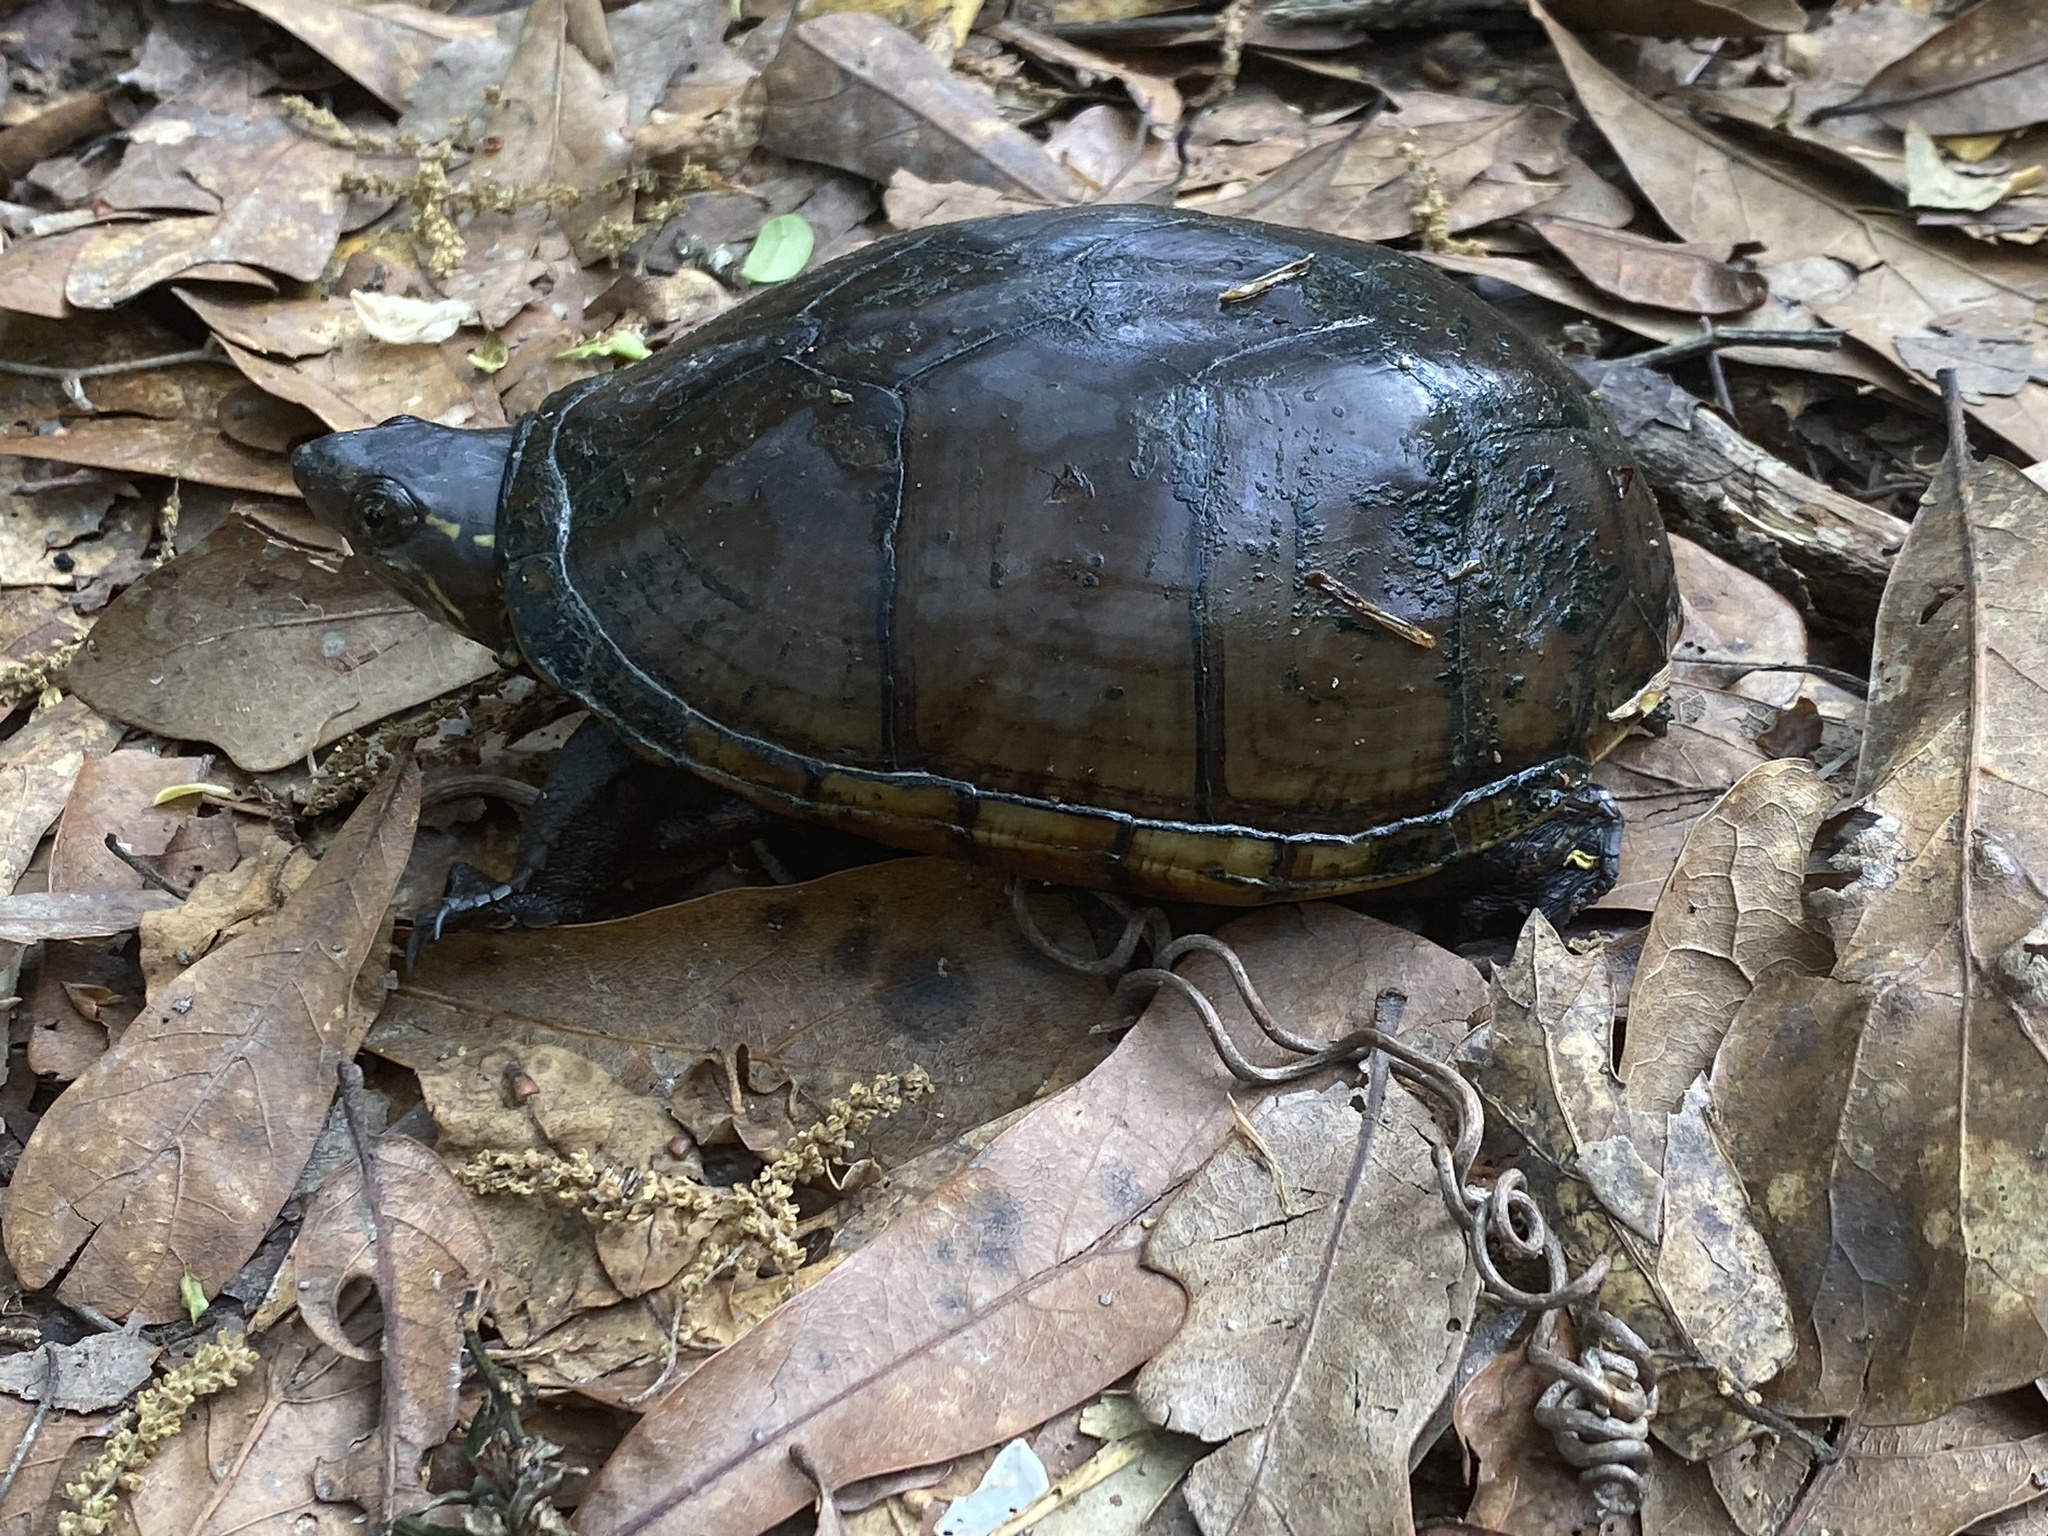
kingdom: Animalia
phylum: Chordata
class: Testudines
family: Kinosternidae
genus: Kinosternon
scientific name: Kinosternon subrubrum
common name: Eastern mud turtle
